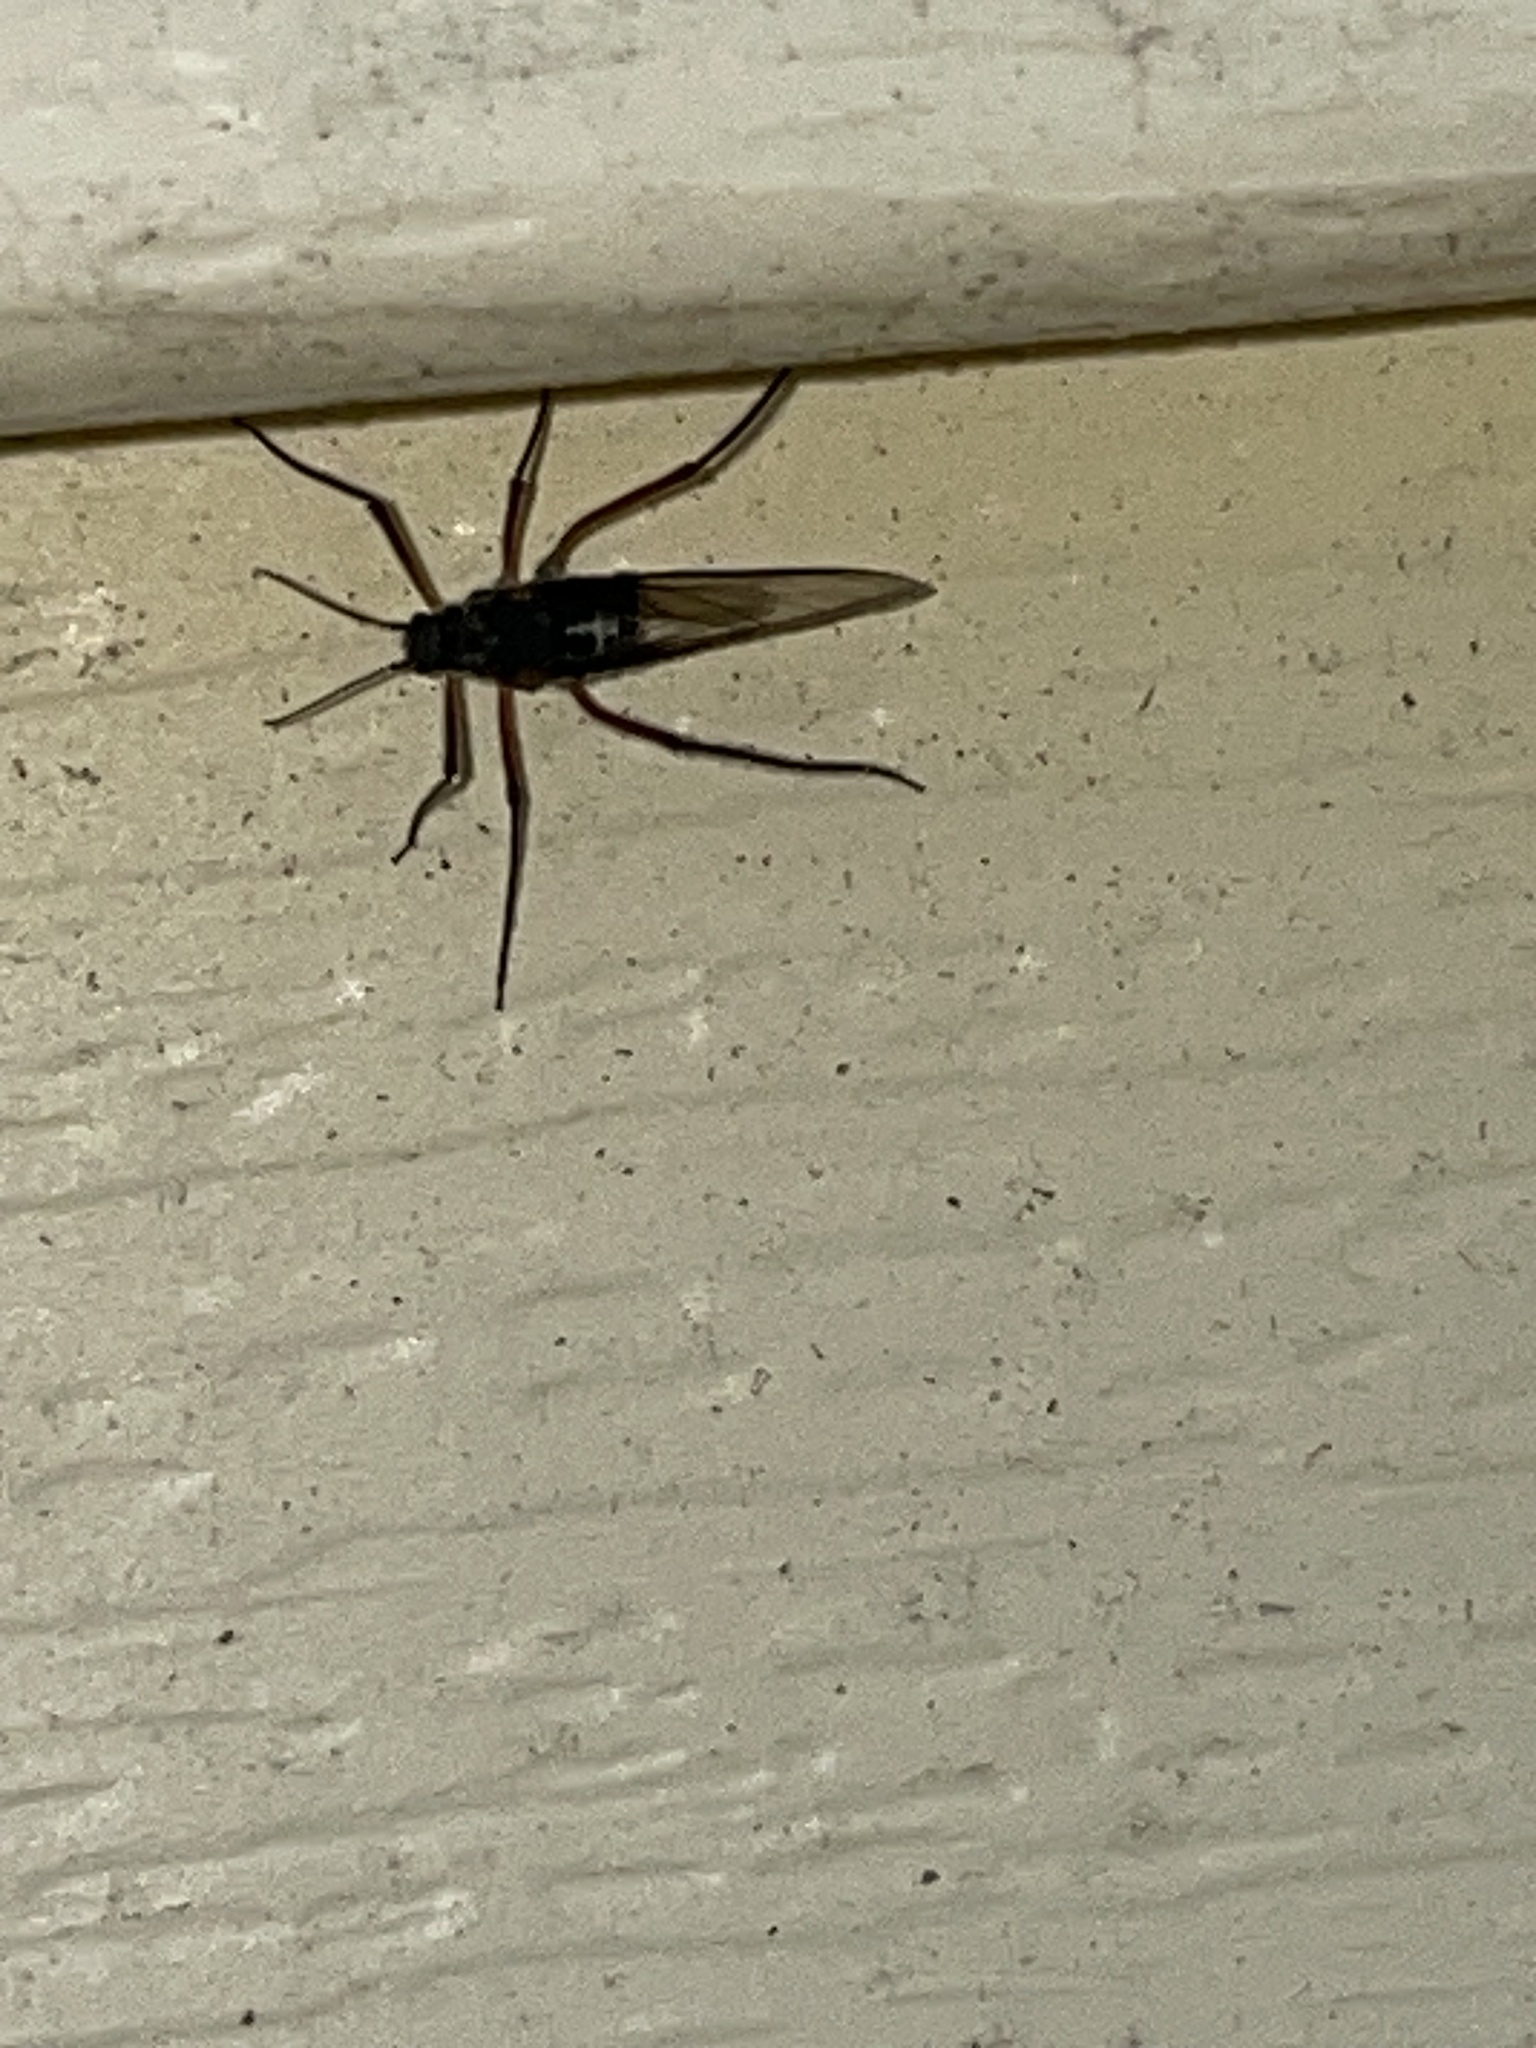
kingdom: Animalia
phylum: Arthropoda
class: Insecta
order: Hemiptera
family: Aphididae
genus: Longistigma
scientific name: Longistigma caryae
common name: Giant bark aphid
